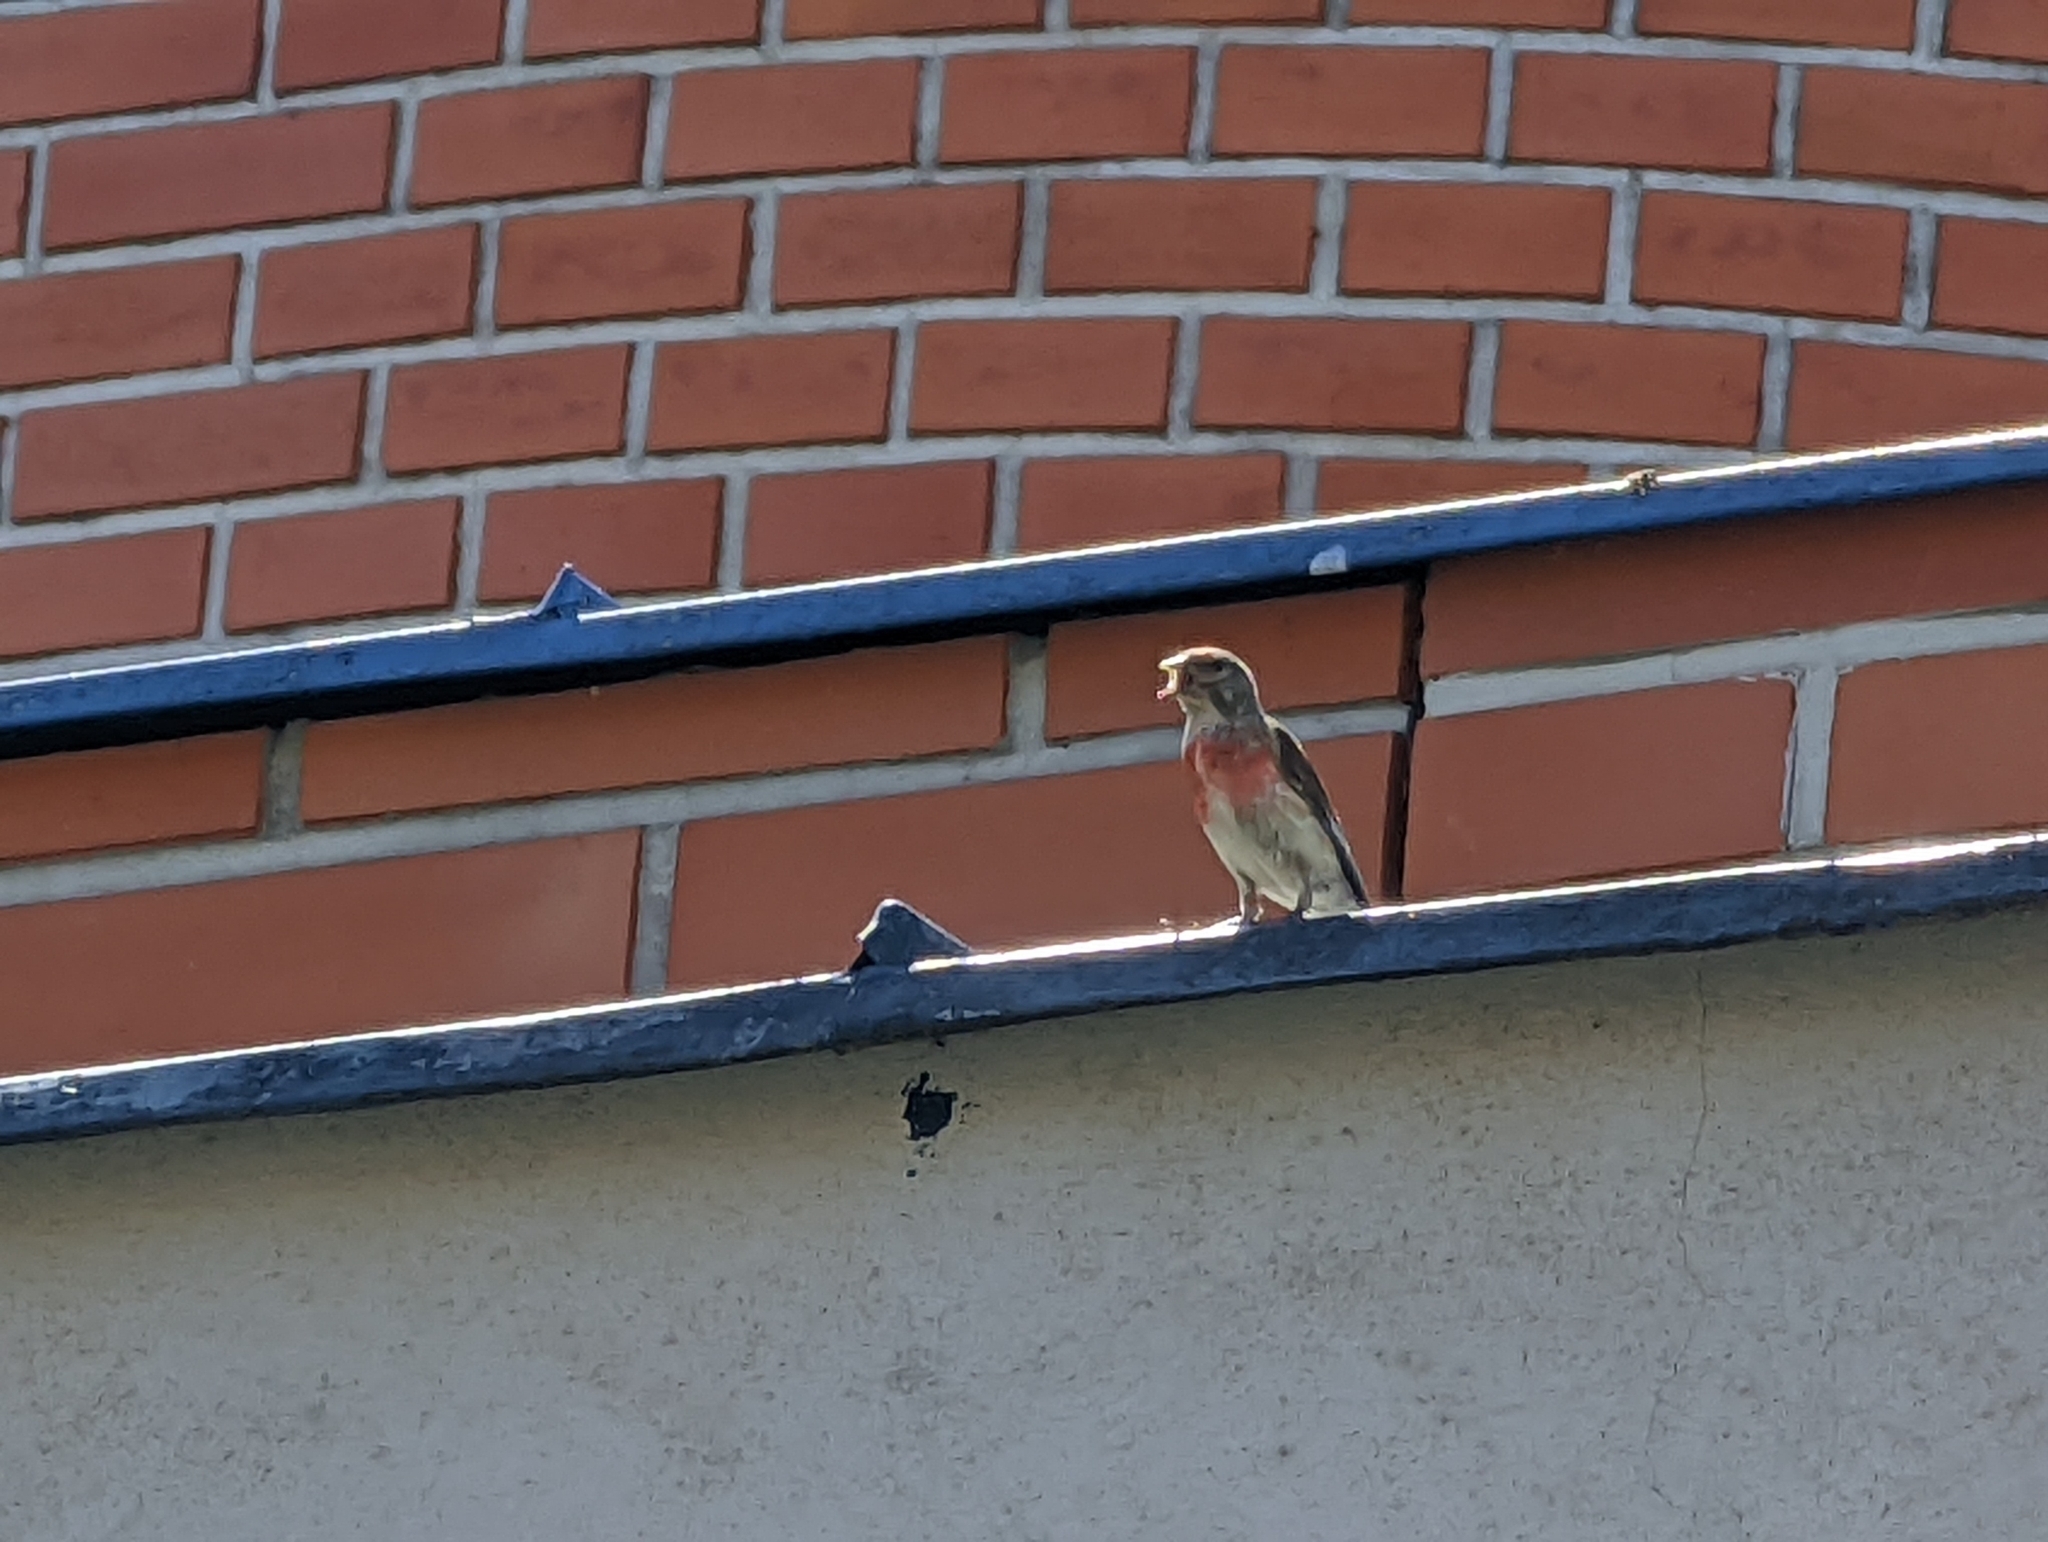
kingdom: Animalia
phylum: Chordata
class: Aves
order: Passeriformes
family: Fringillidae
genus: Linaria
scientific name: Linaria cannabina
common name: Common linnet
